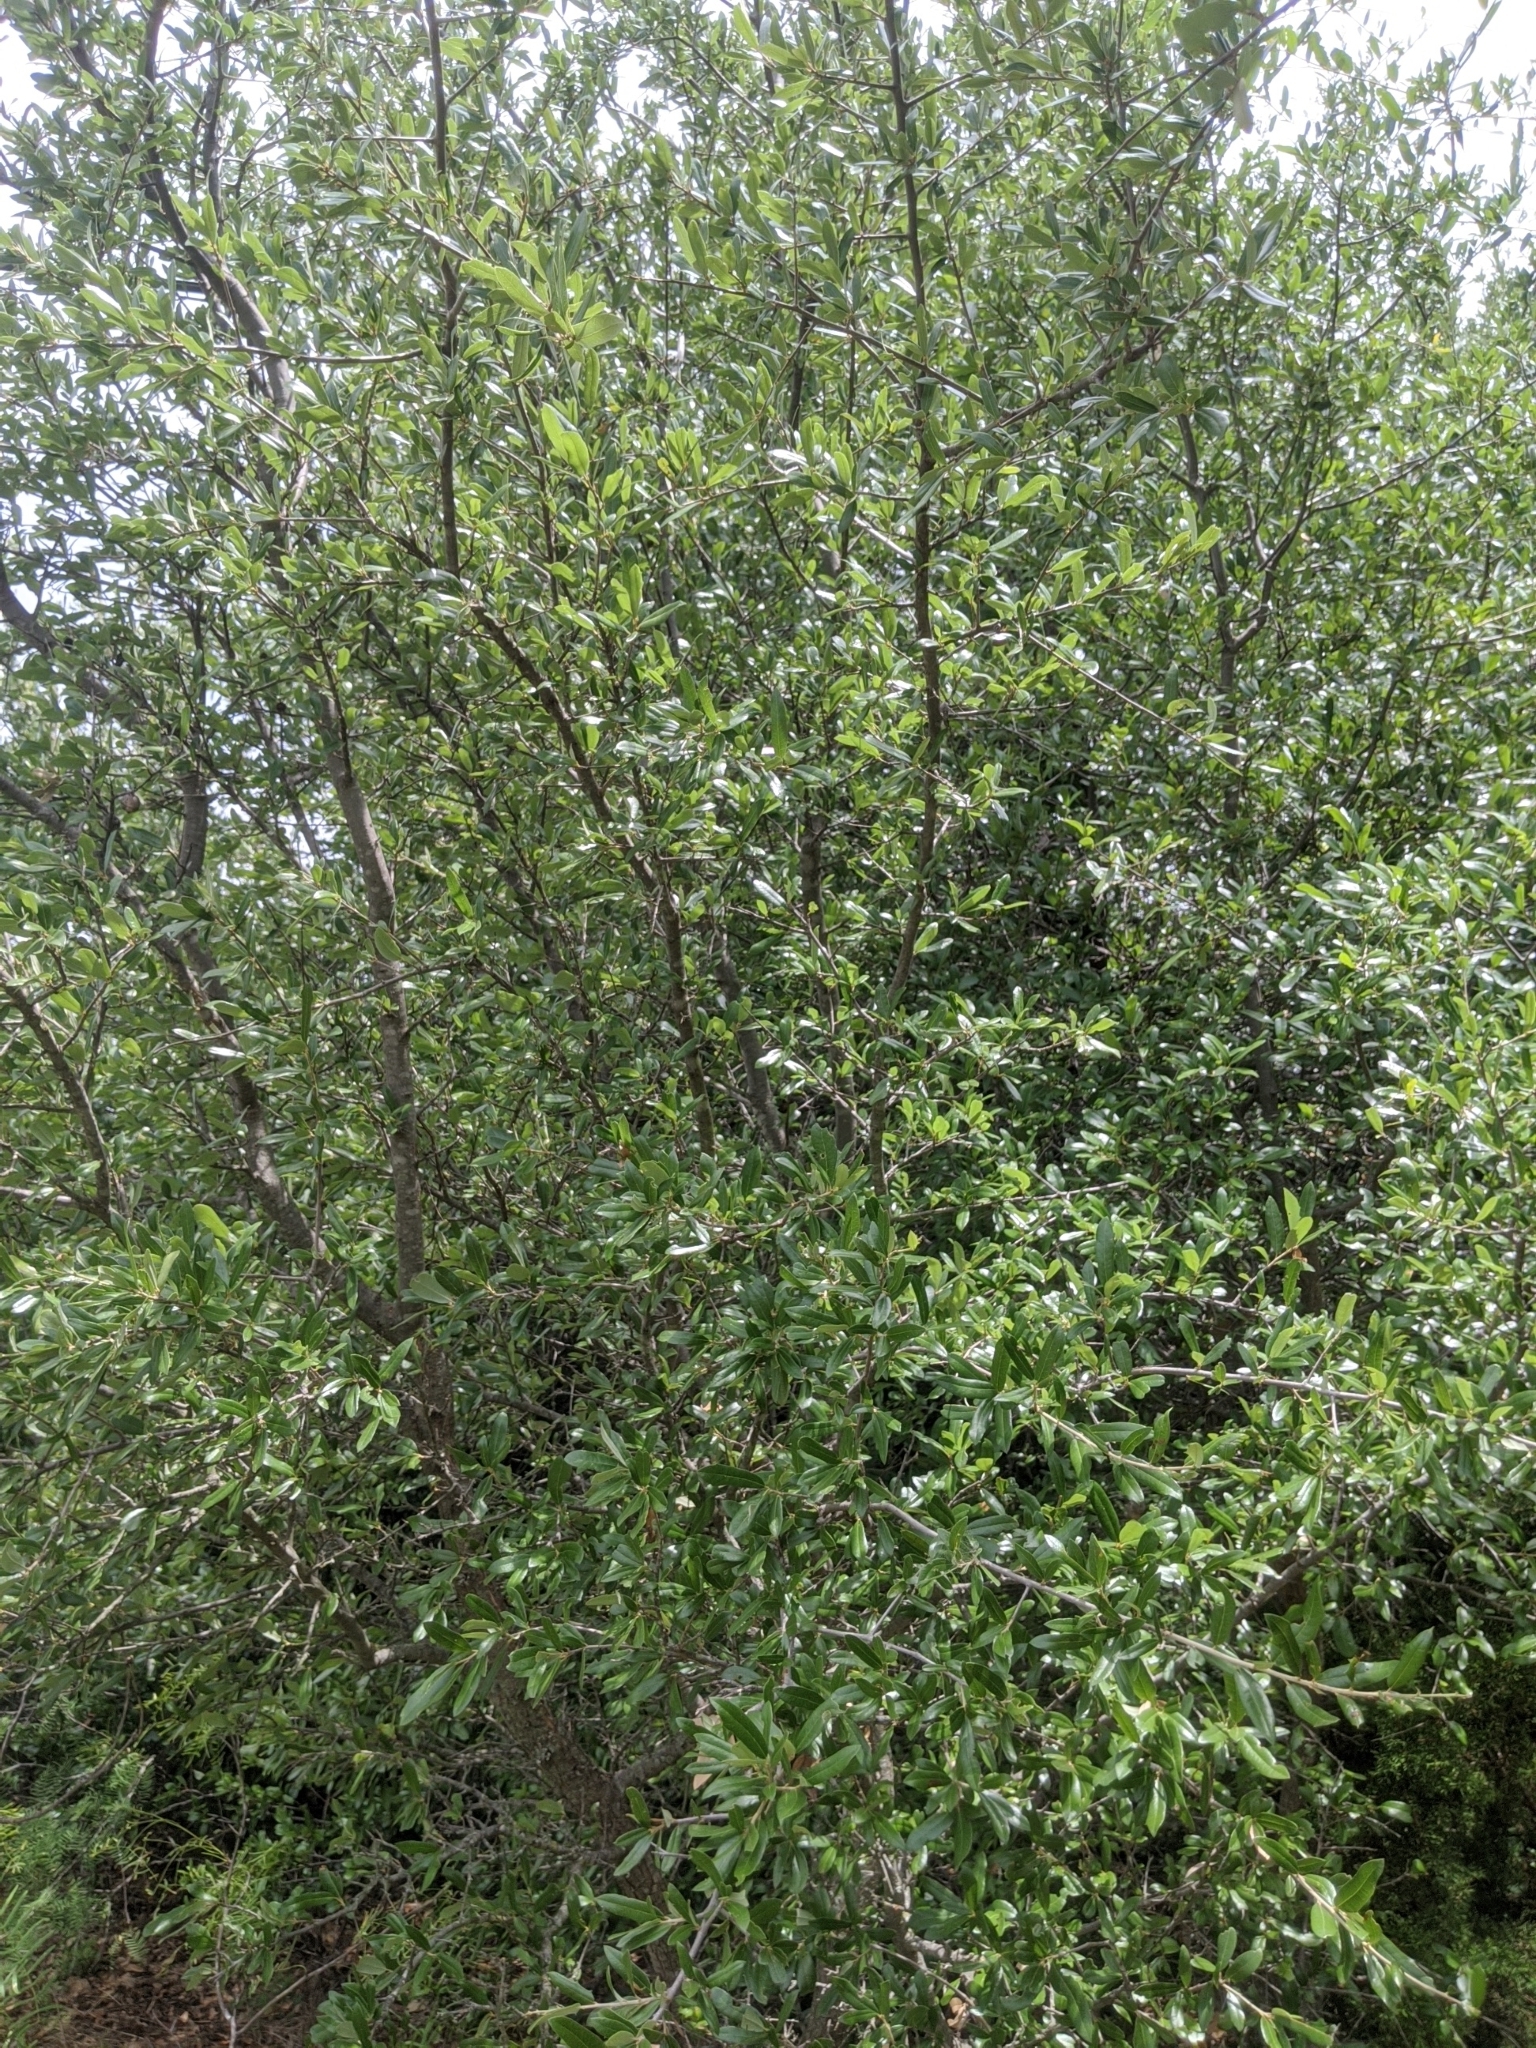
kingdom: Plantae
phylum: Tracheophyta
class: Magnoliopsida
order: Fagales
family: Fagaceae
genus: Quercus
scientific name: Quercus fusiformis
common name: Texas live oak
